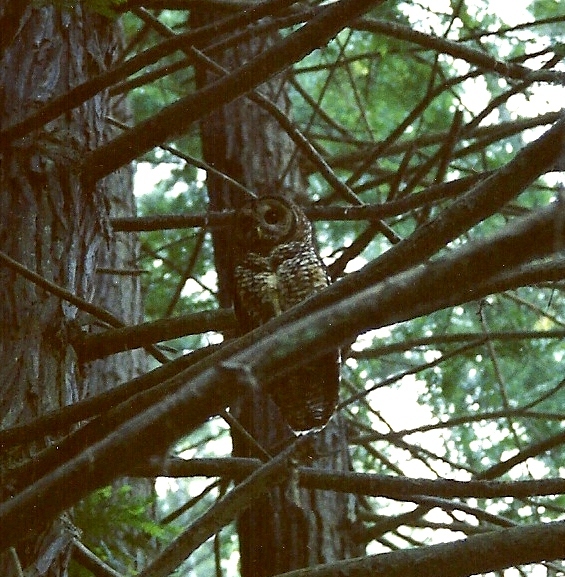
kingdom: Animalia
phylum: Chordata
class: Aves
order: Strigiformes
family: Strigidae
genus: Strix
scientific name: Strix occidentalis
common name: Spotted owl
